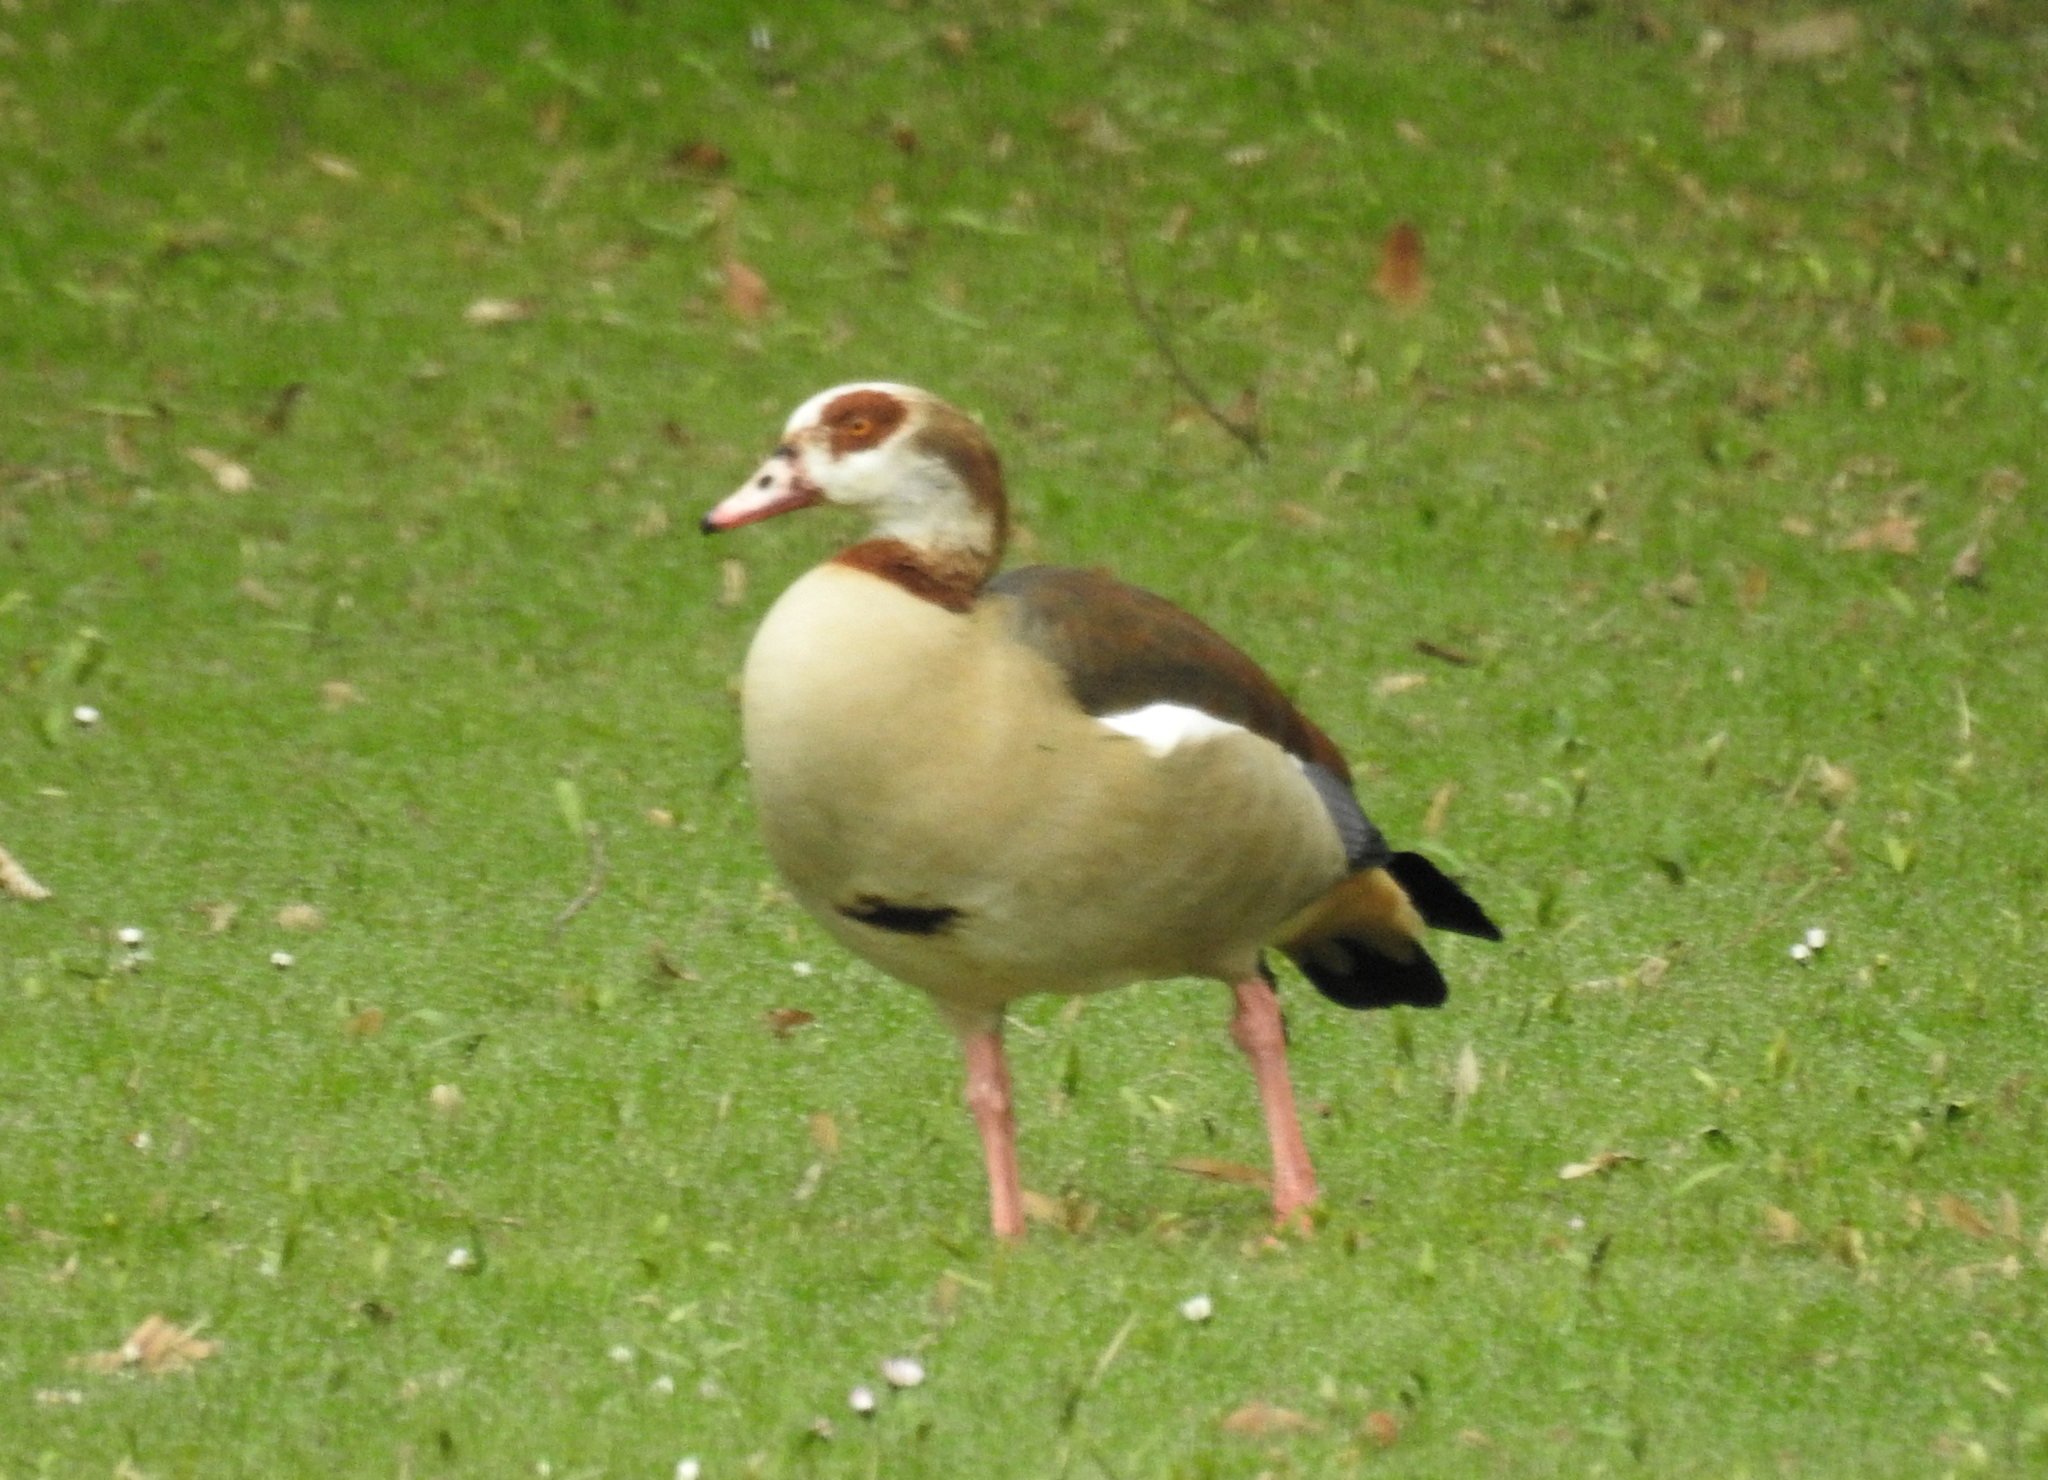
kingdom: Animalia
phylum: Chordata
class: Aves
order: Anseriformes
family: Anatidae
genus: Alopochen
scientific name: Alopochen aegyptiaca
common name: Egyptian goose
